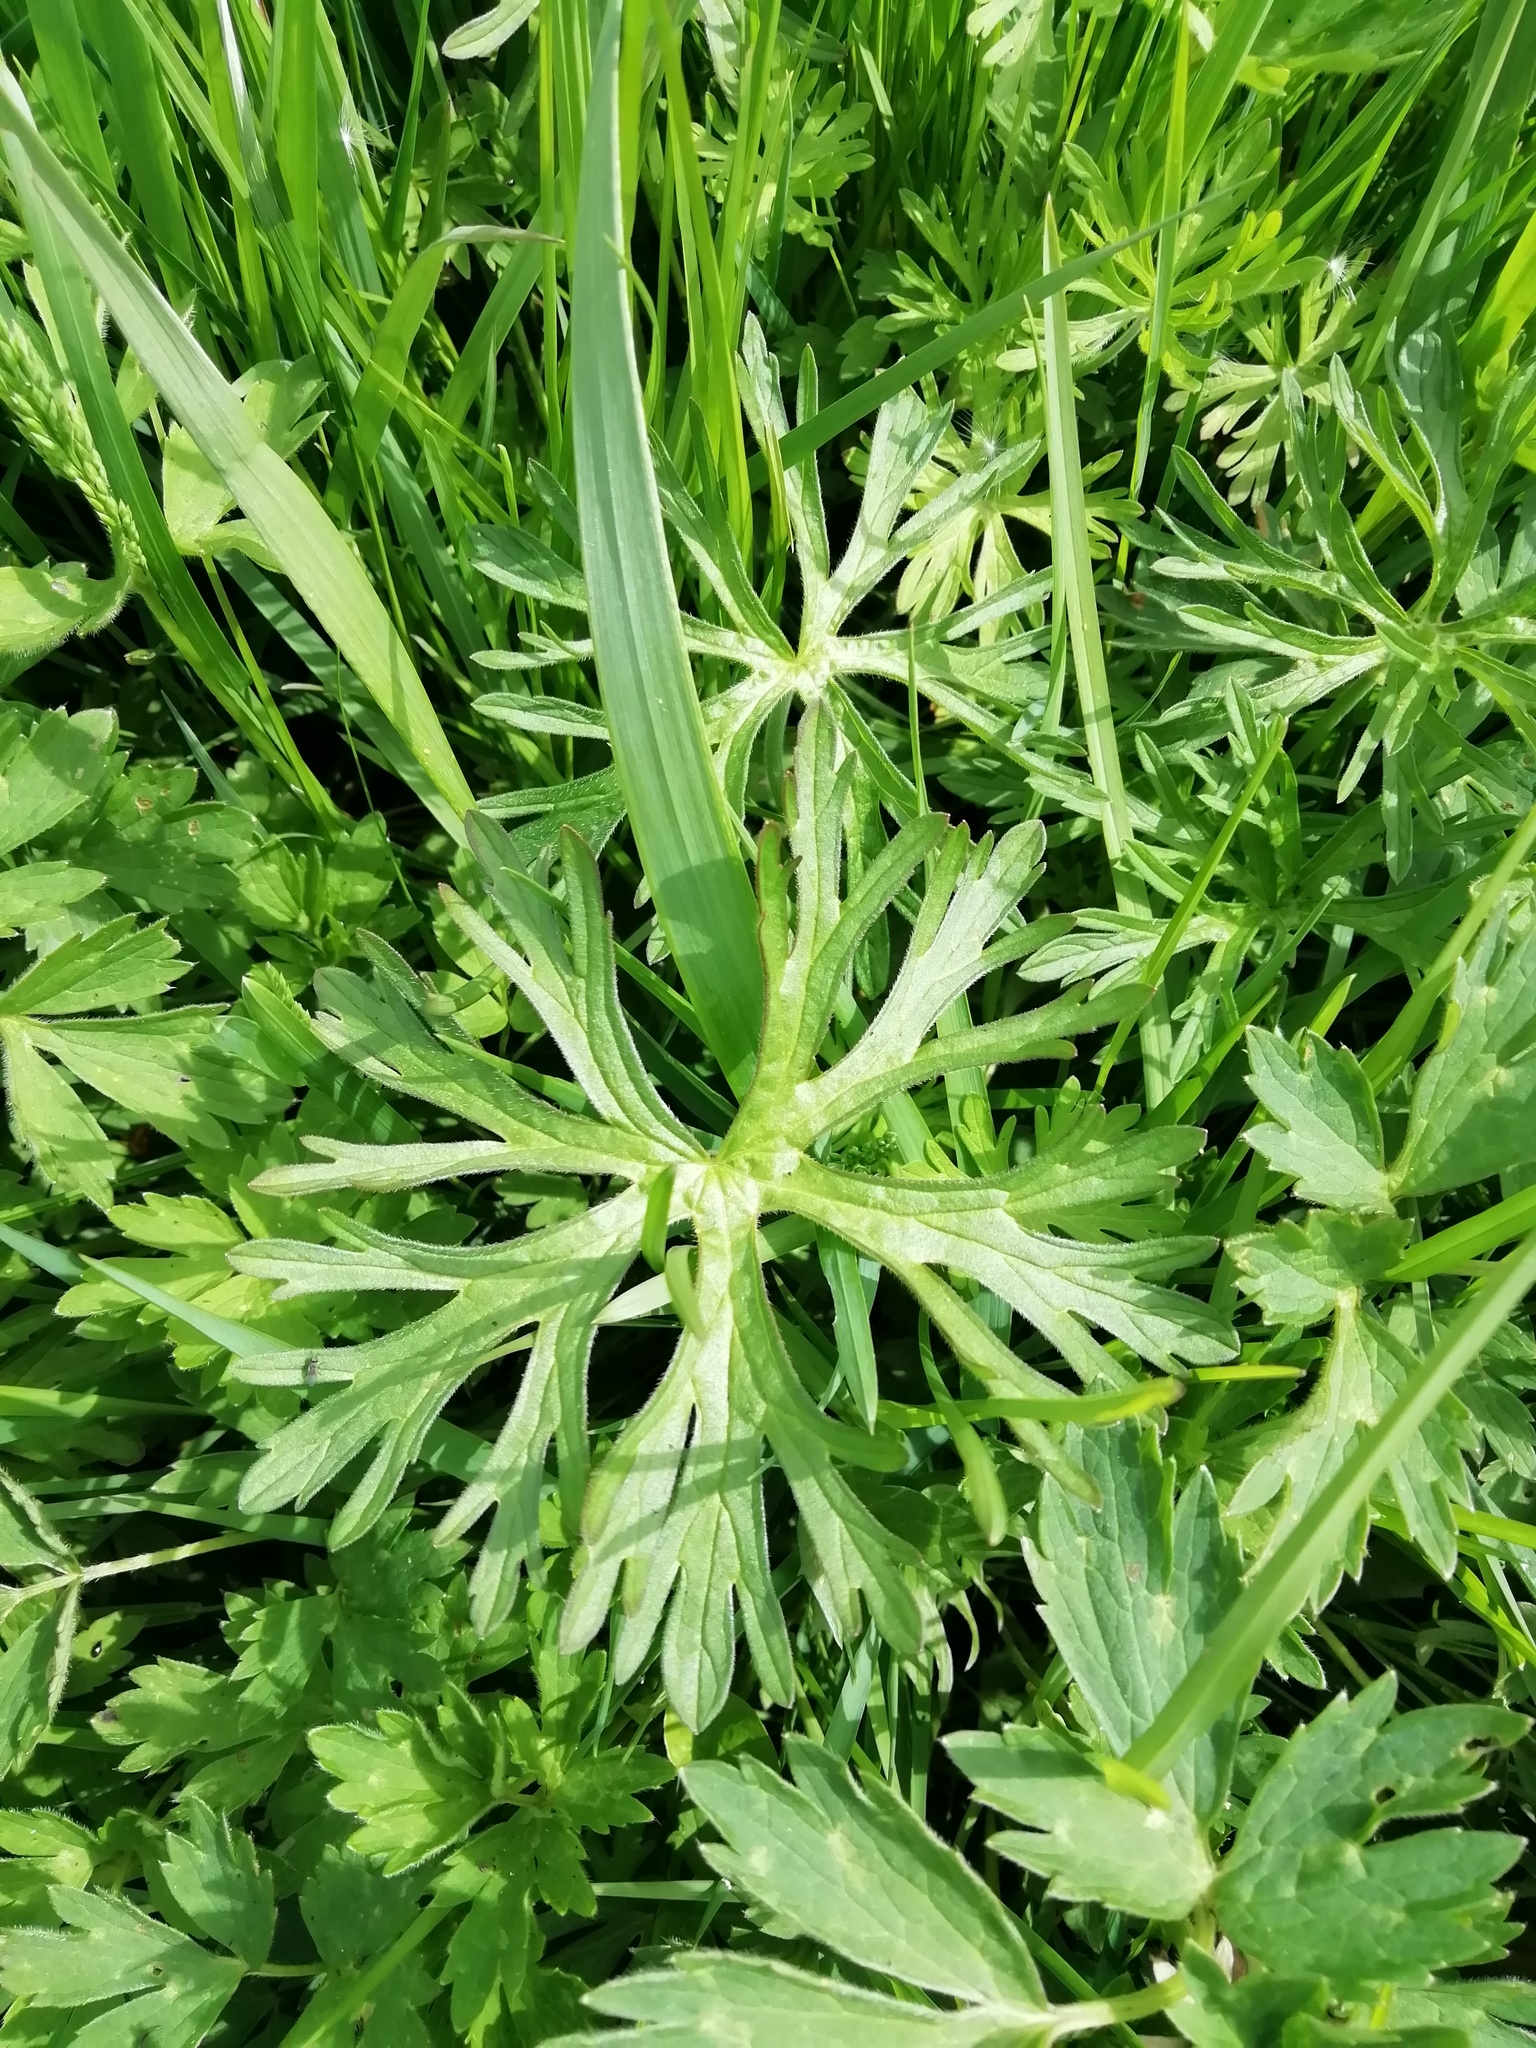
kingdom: Plantae
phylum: Tracheophyta
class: Magnoliopsida
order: Ranunculales
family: Ranunculaceae
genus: Ranunculus
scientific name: Ranunculus acris
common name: Meadow buttercup
